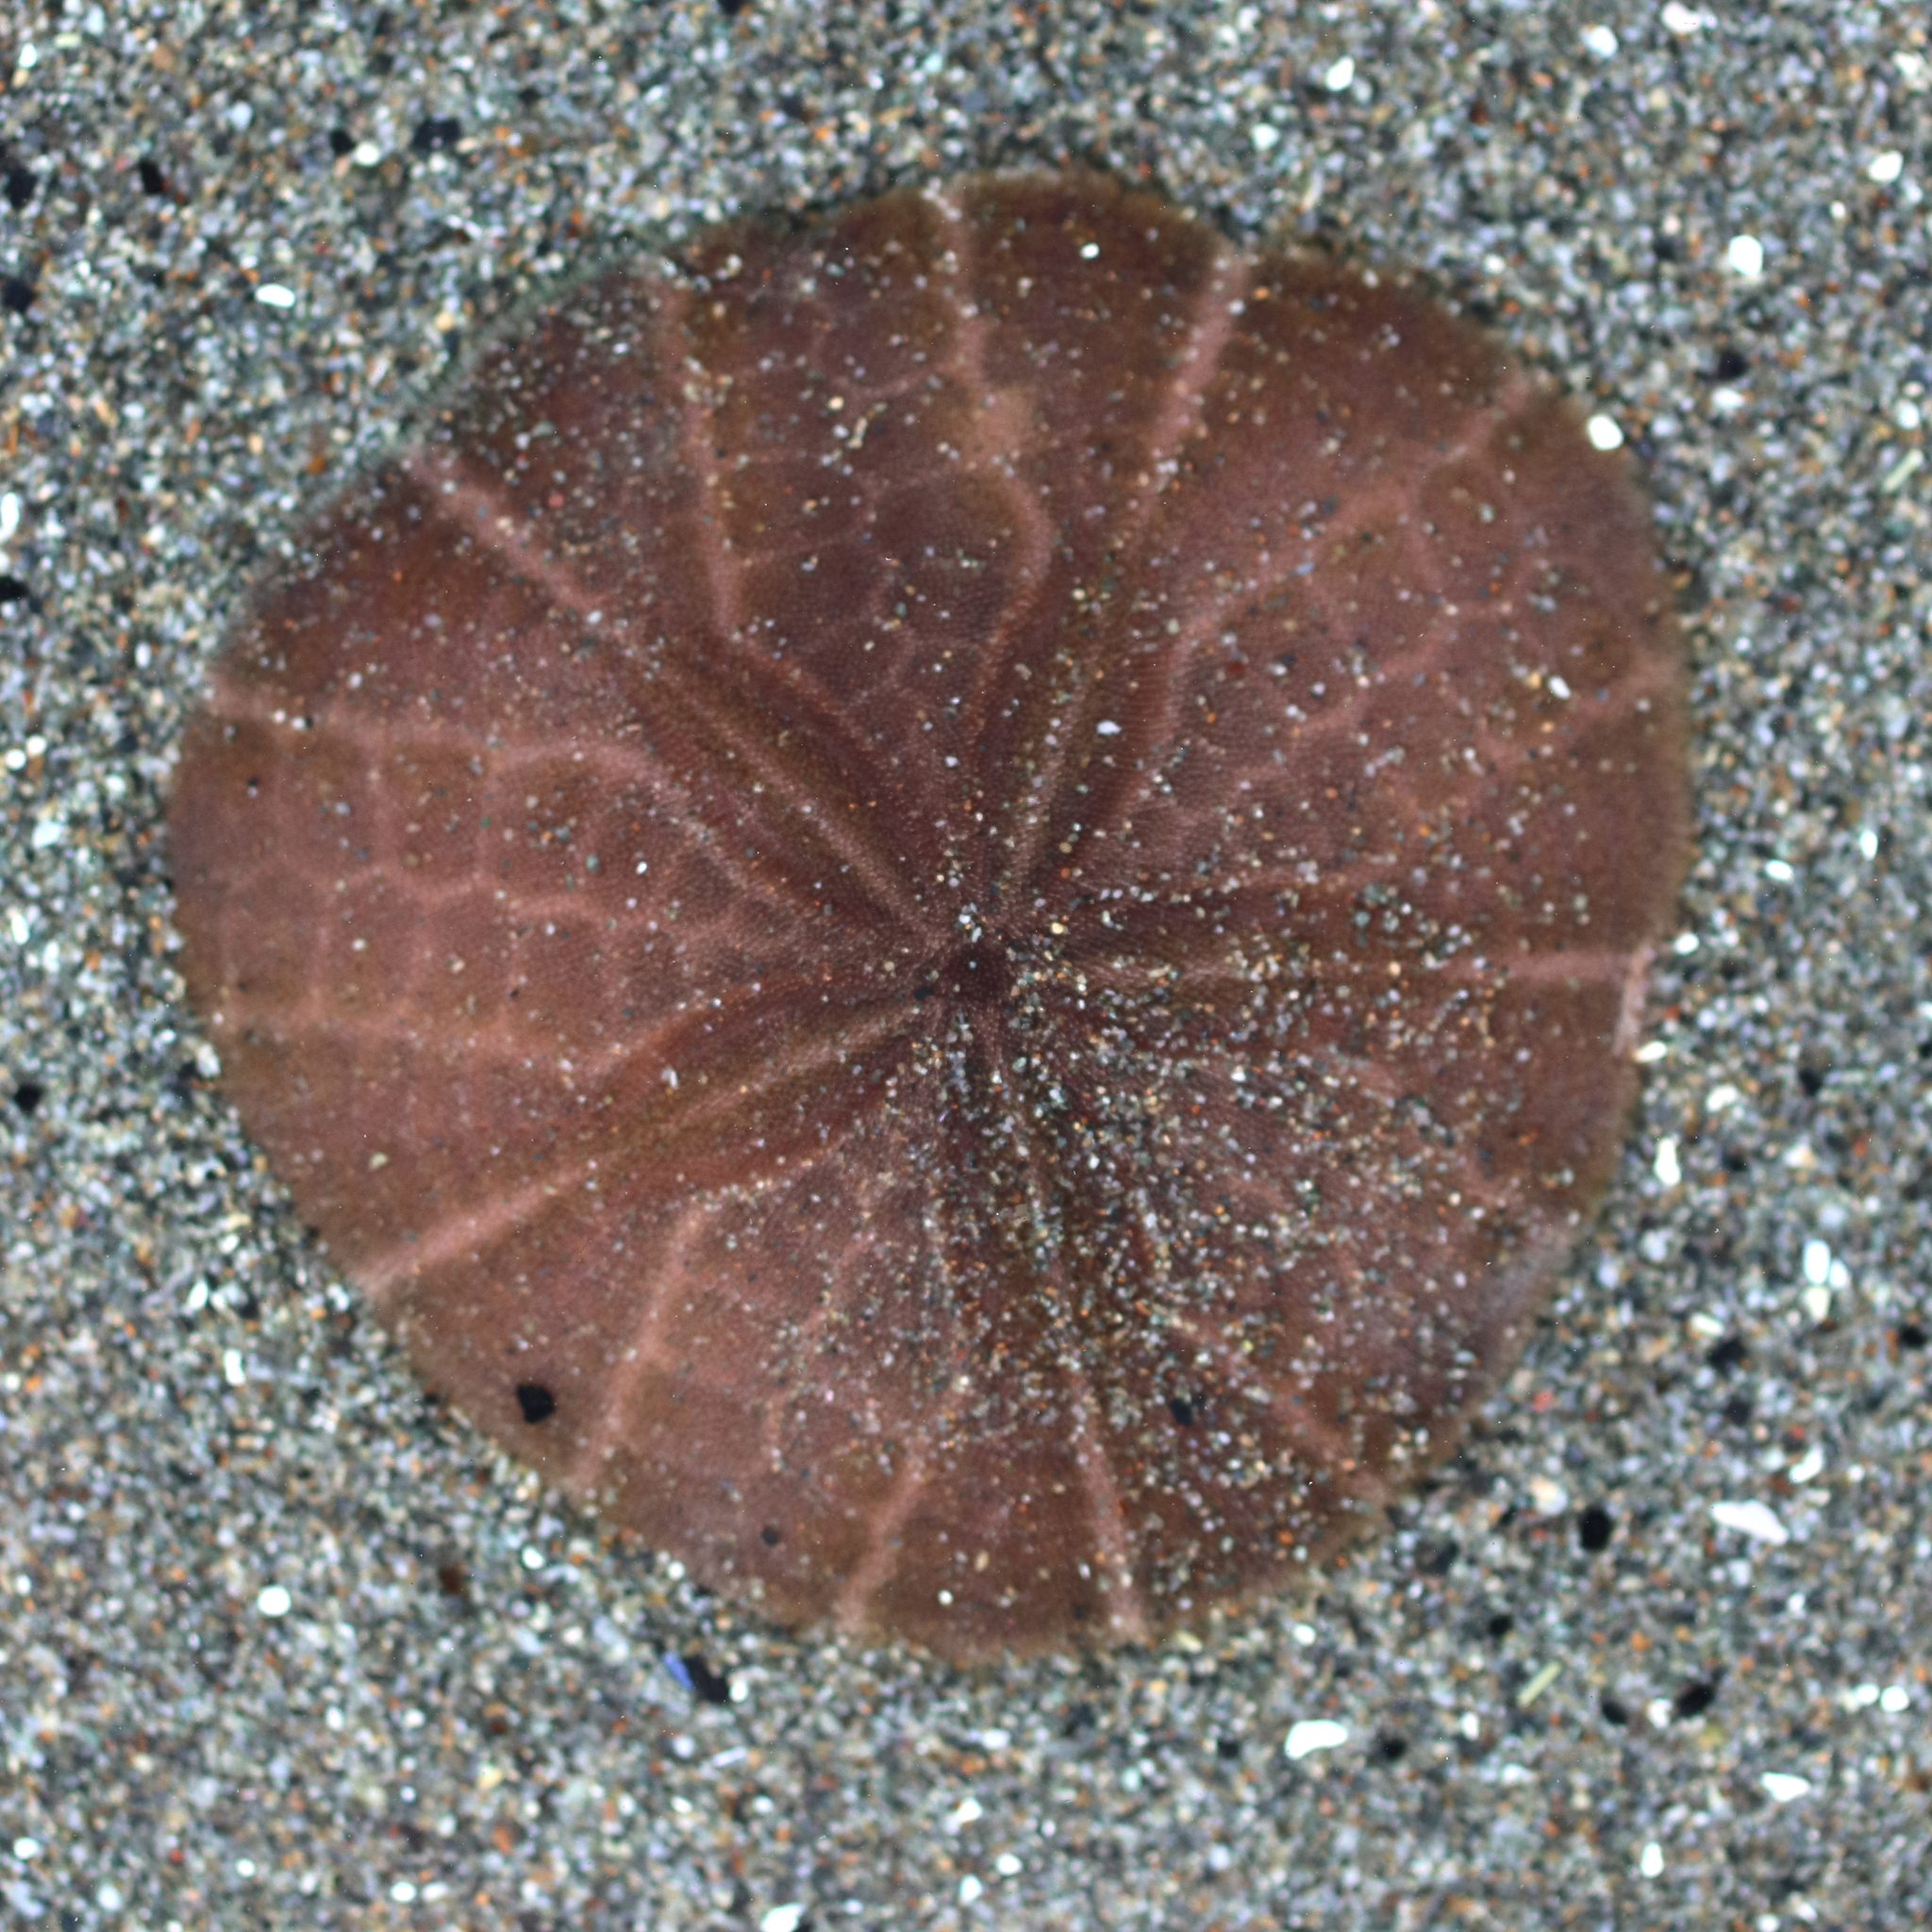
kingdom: Animalia
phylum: Echinodermata
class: Echinoidea
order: Echinolampadacea
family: Echinarachniidae
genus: Echinarachnius
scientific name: Echinarachnius parma
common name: Common sand dollar
